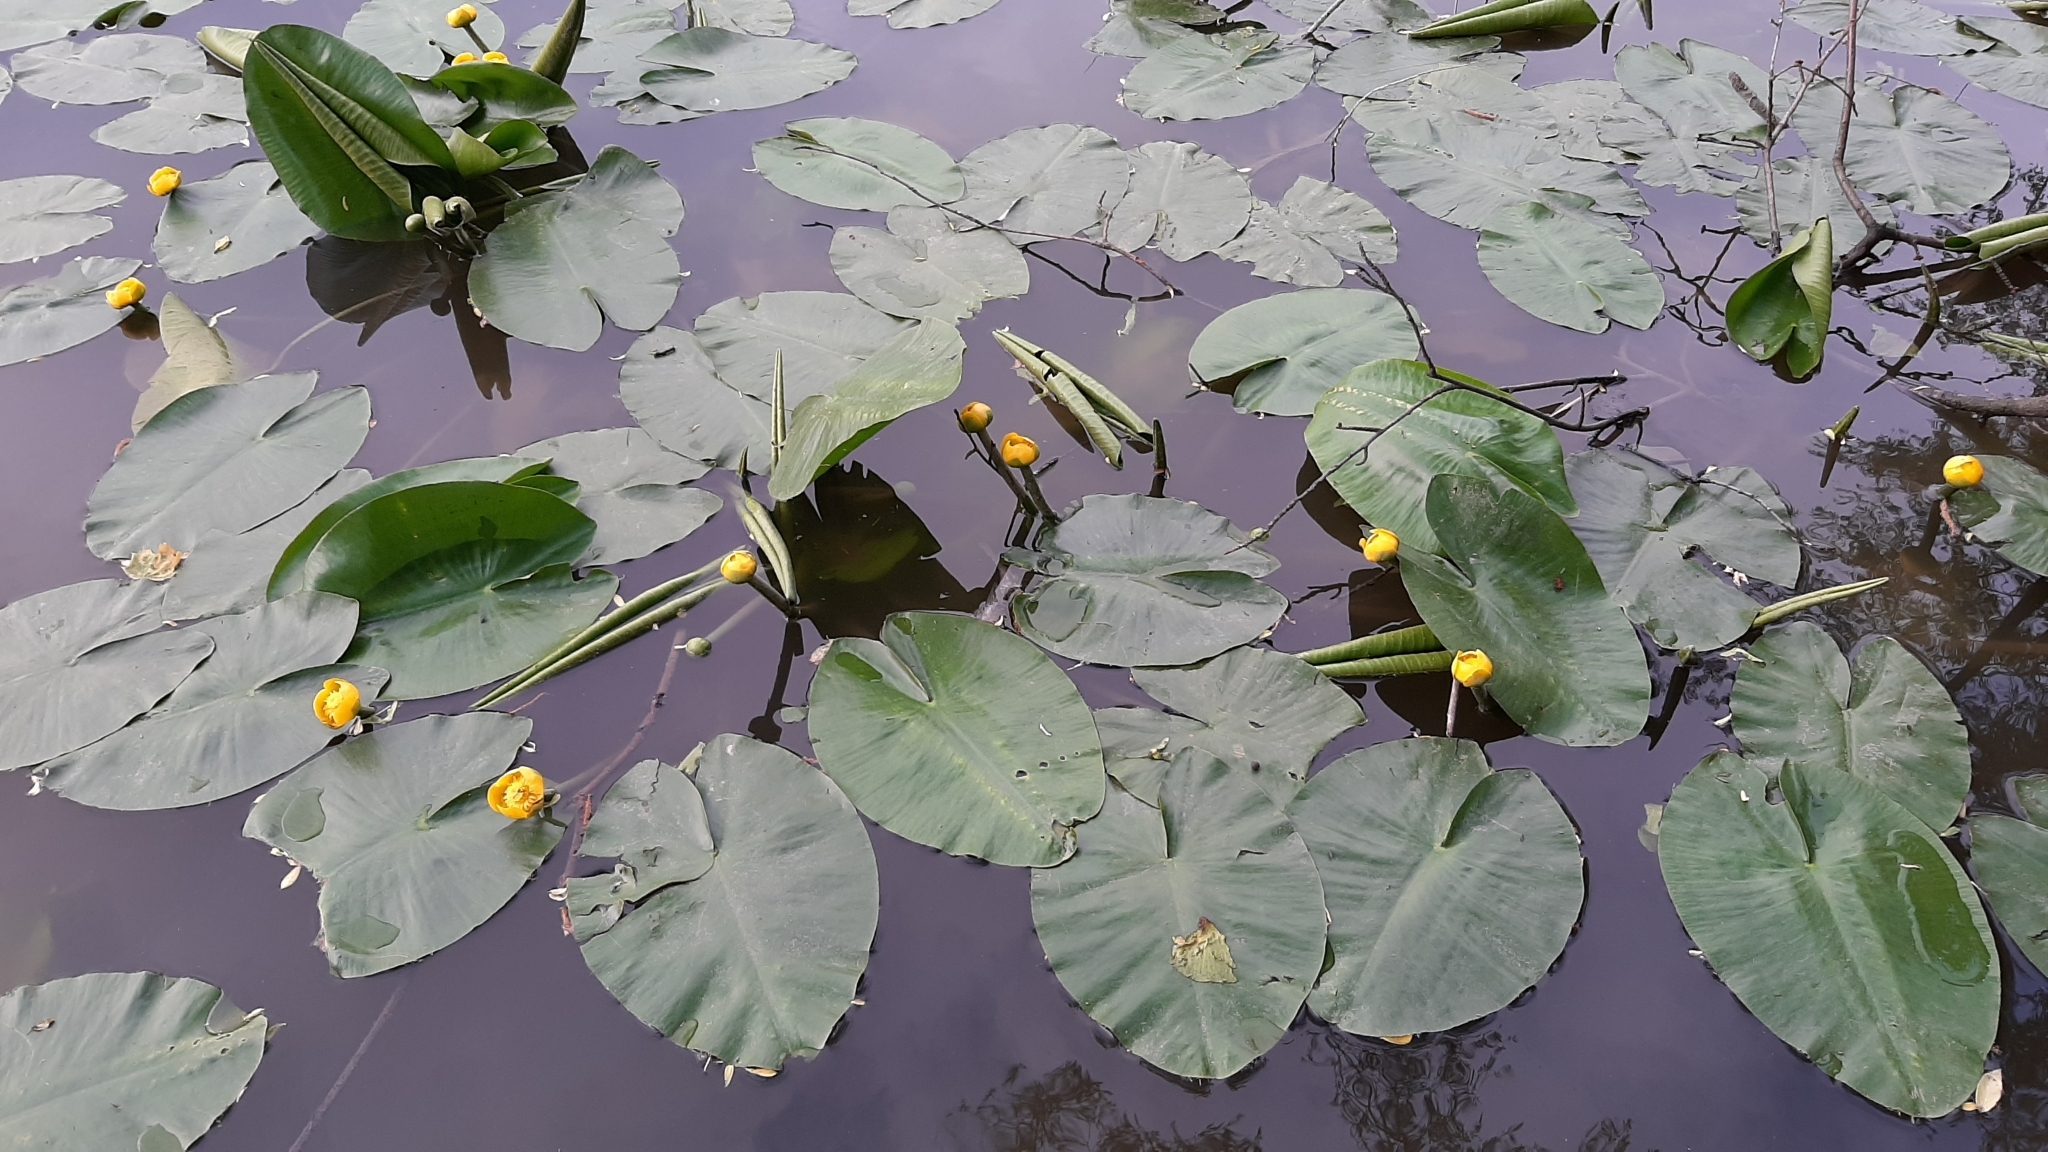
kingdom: Plantae
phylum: Tracheophyta
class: Magnoliopsida
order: Nymphaeales
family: Nymphaeaceae
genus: Nuphar
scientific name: Nuphar lutea
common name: Yellow water-lily
